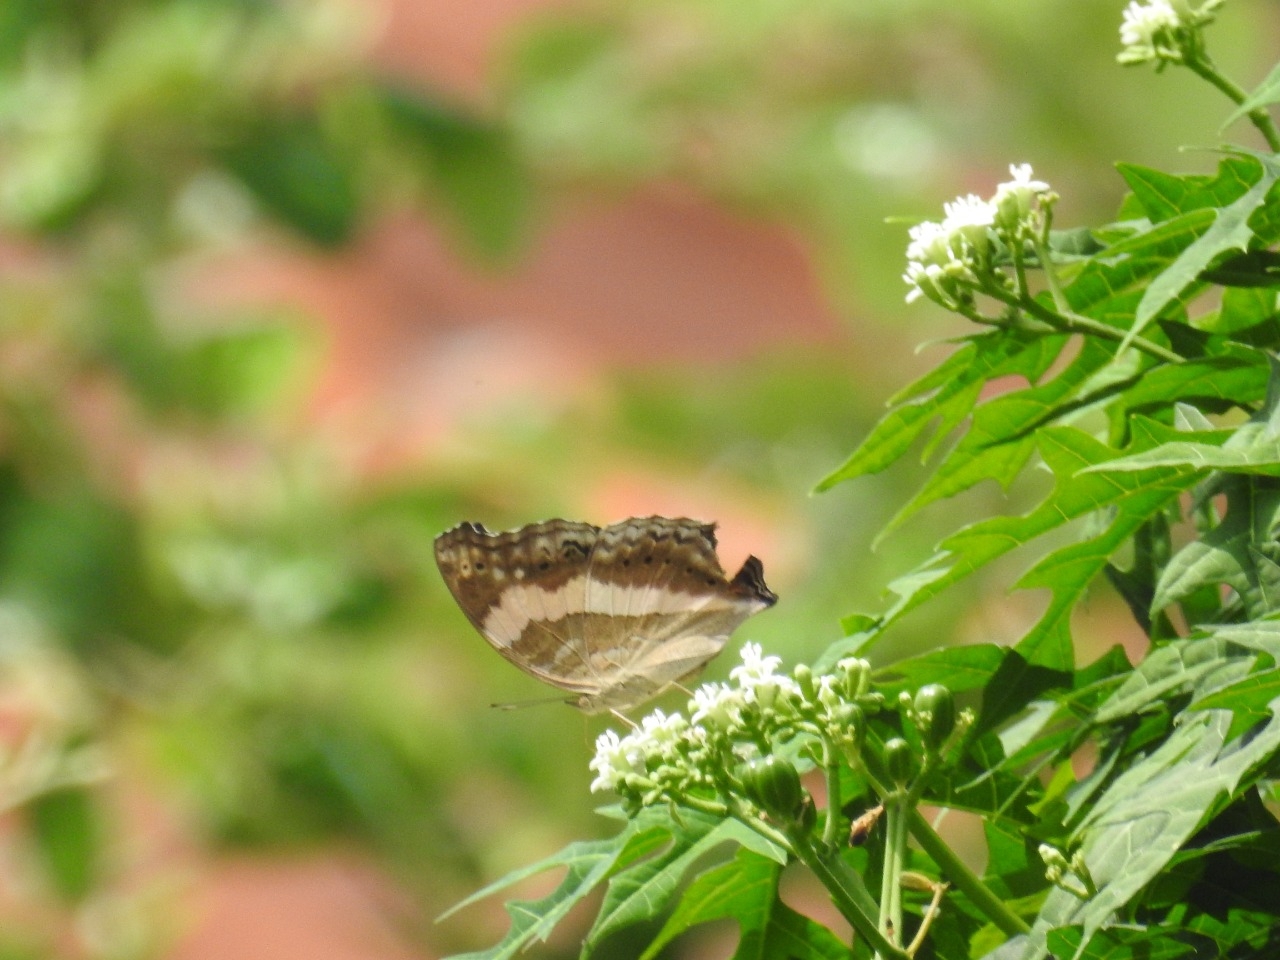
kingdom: Animalia
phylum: Arthropoda
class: Insecta
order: Lepidoptera
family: Nymphalidae
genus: Yoma
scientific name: Yoma sabina
